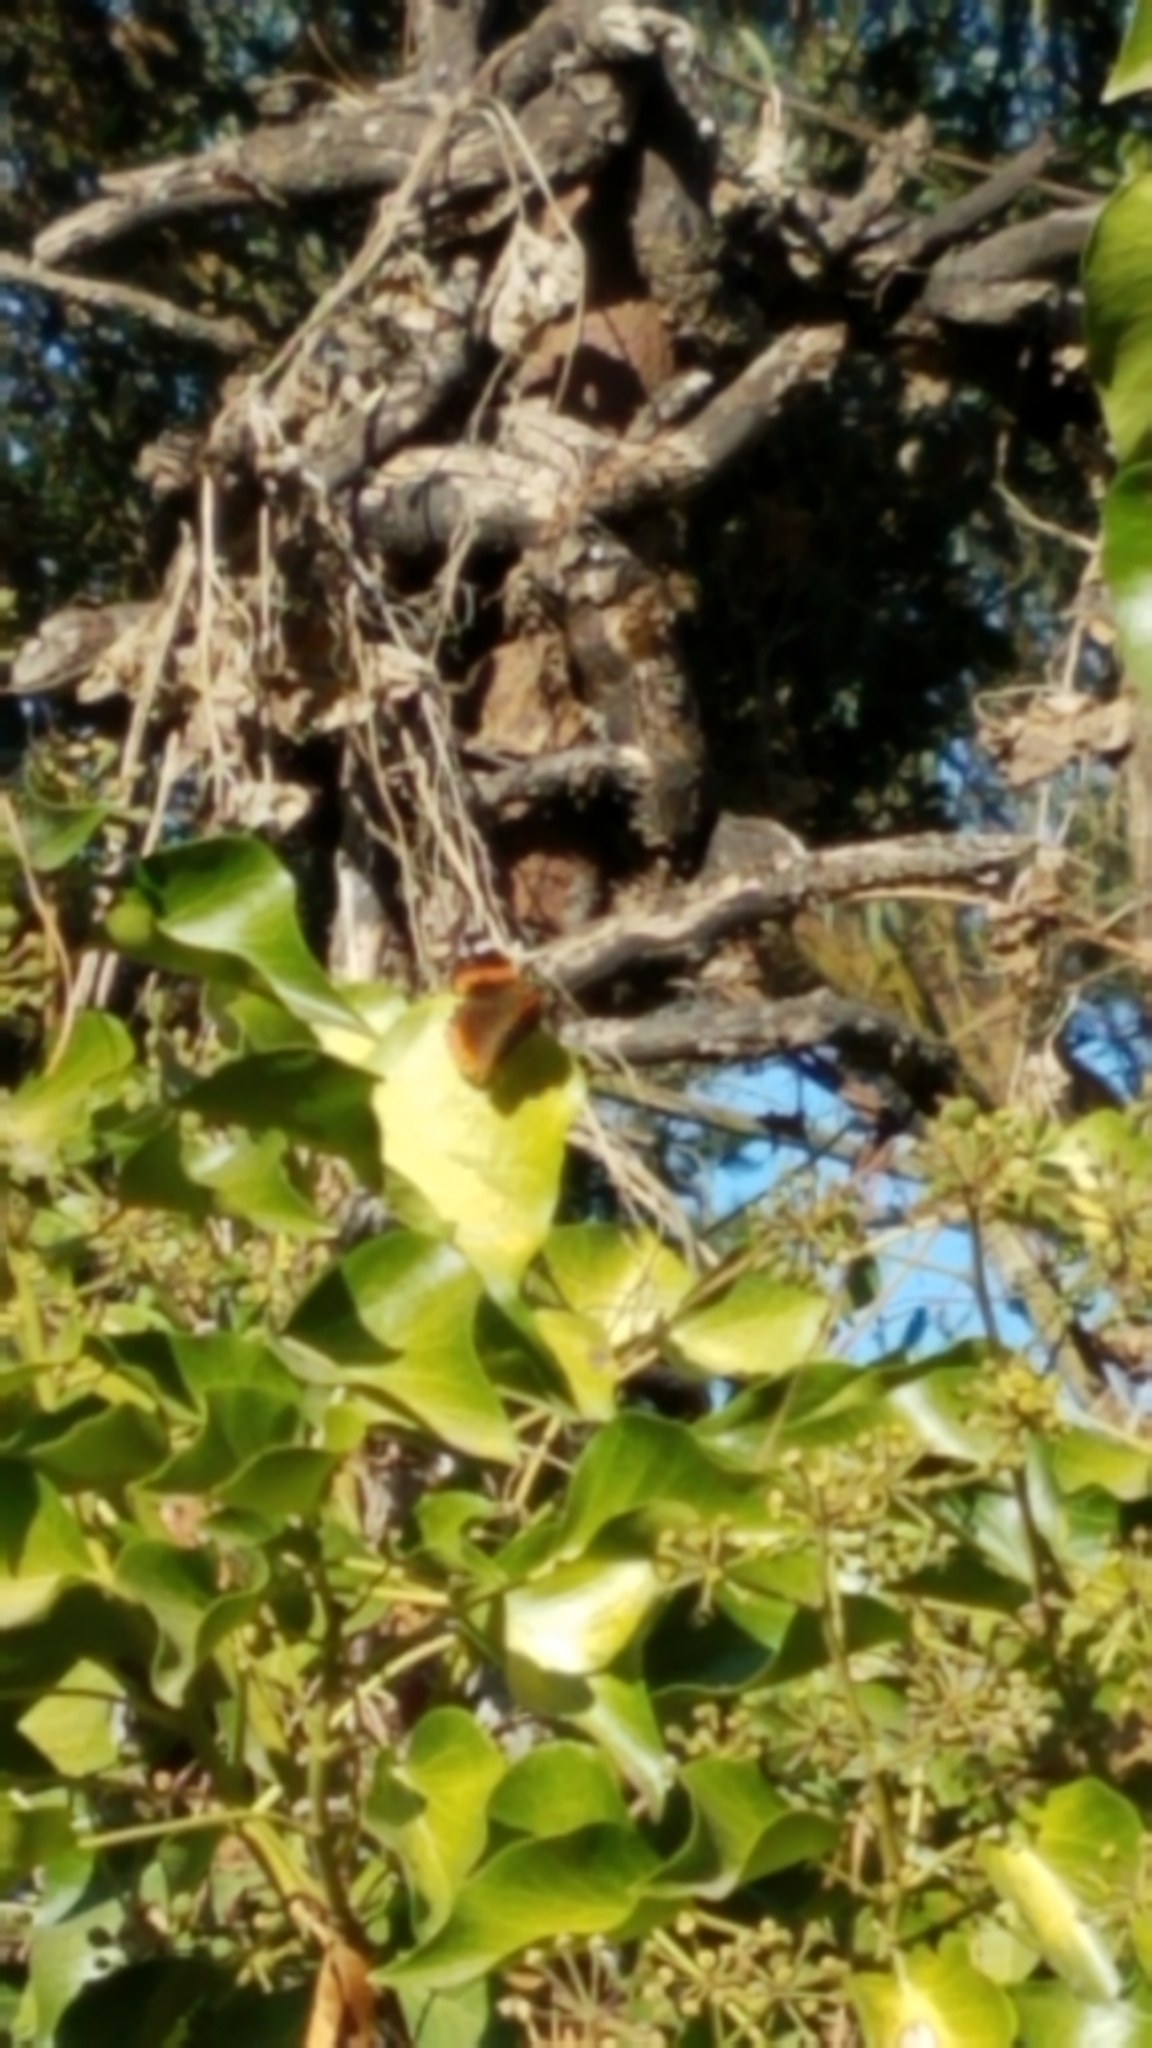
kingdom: Animalia
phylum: Arthropoda
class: Insecta
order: Lepidoptera
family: Nymphalidae
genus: Vanessa
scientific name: Vanessa atalanta
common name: Red admiral
